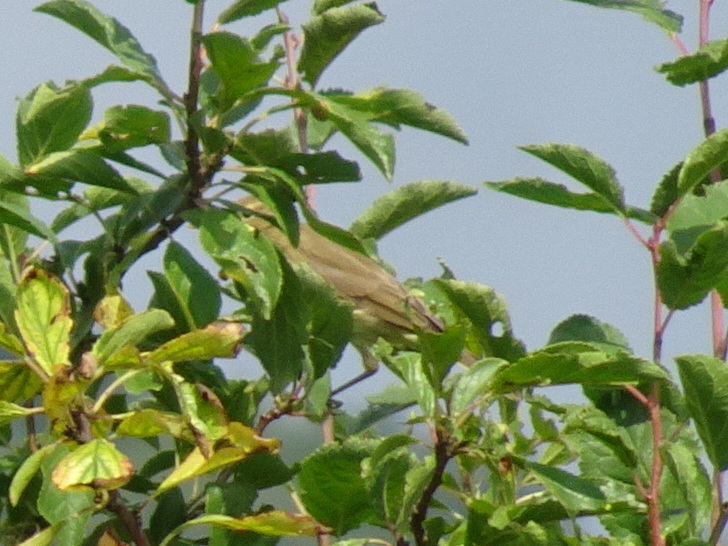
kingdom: Animalia
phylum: Chordata
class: Aves
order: Passeriformes
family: Acrocephalidae
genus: Hippolais
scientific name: Hippolais
